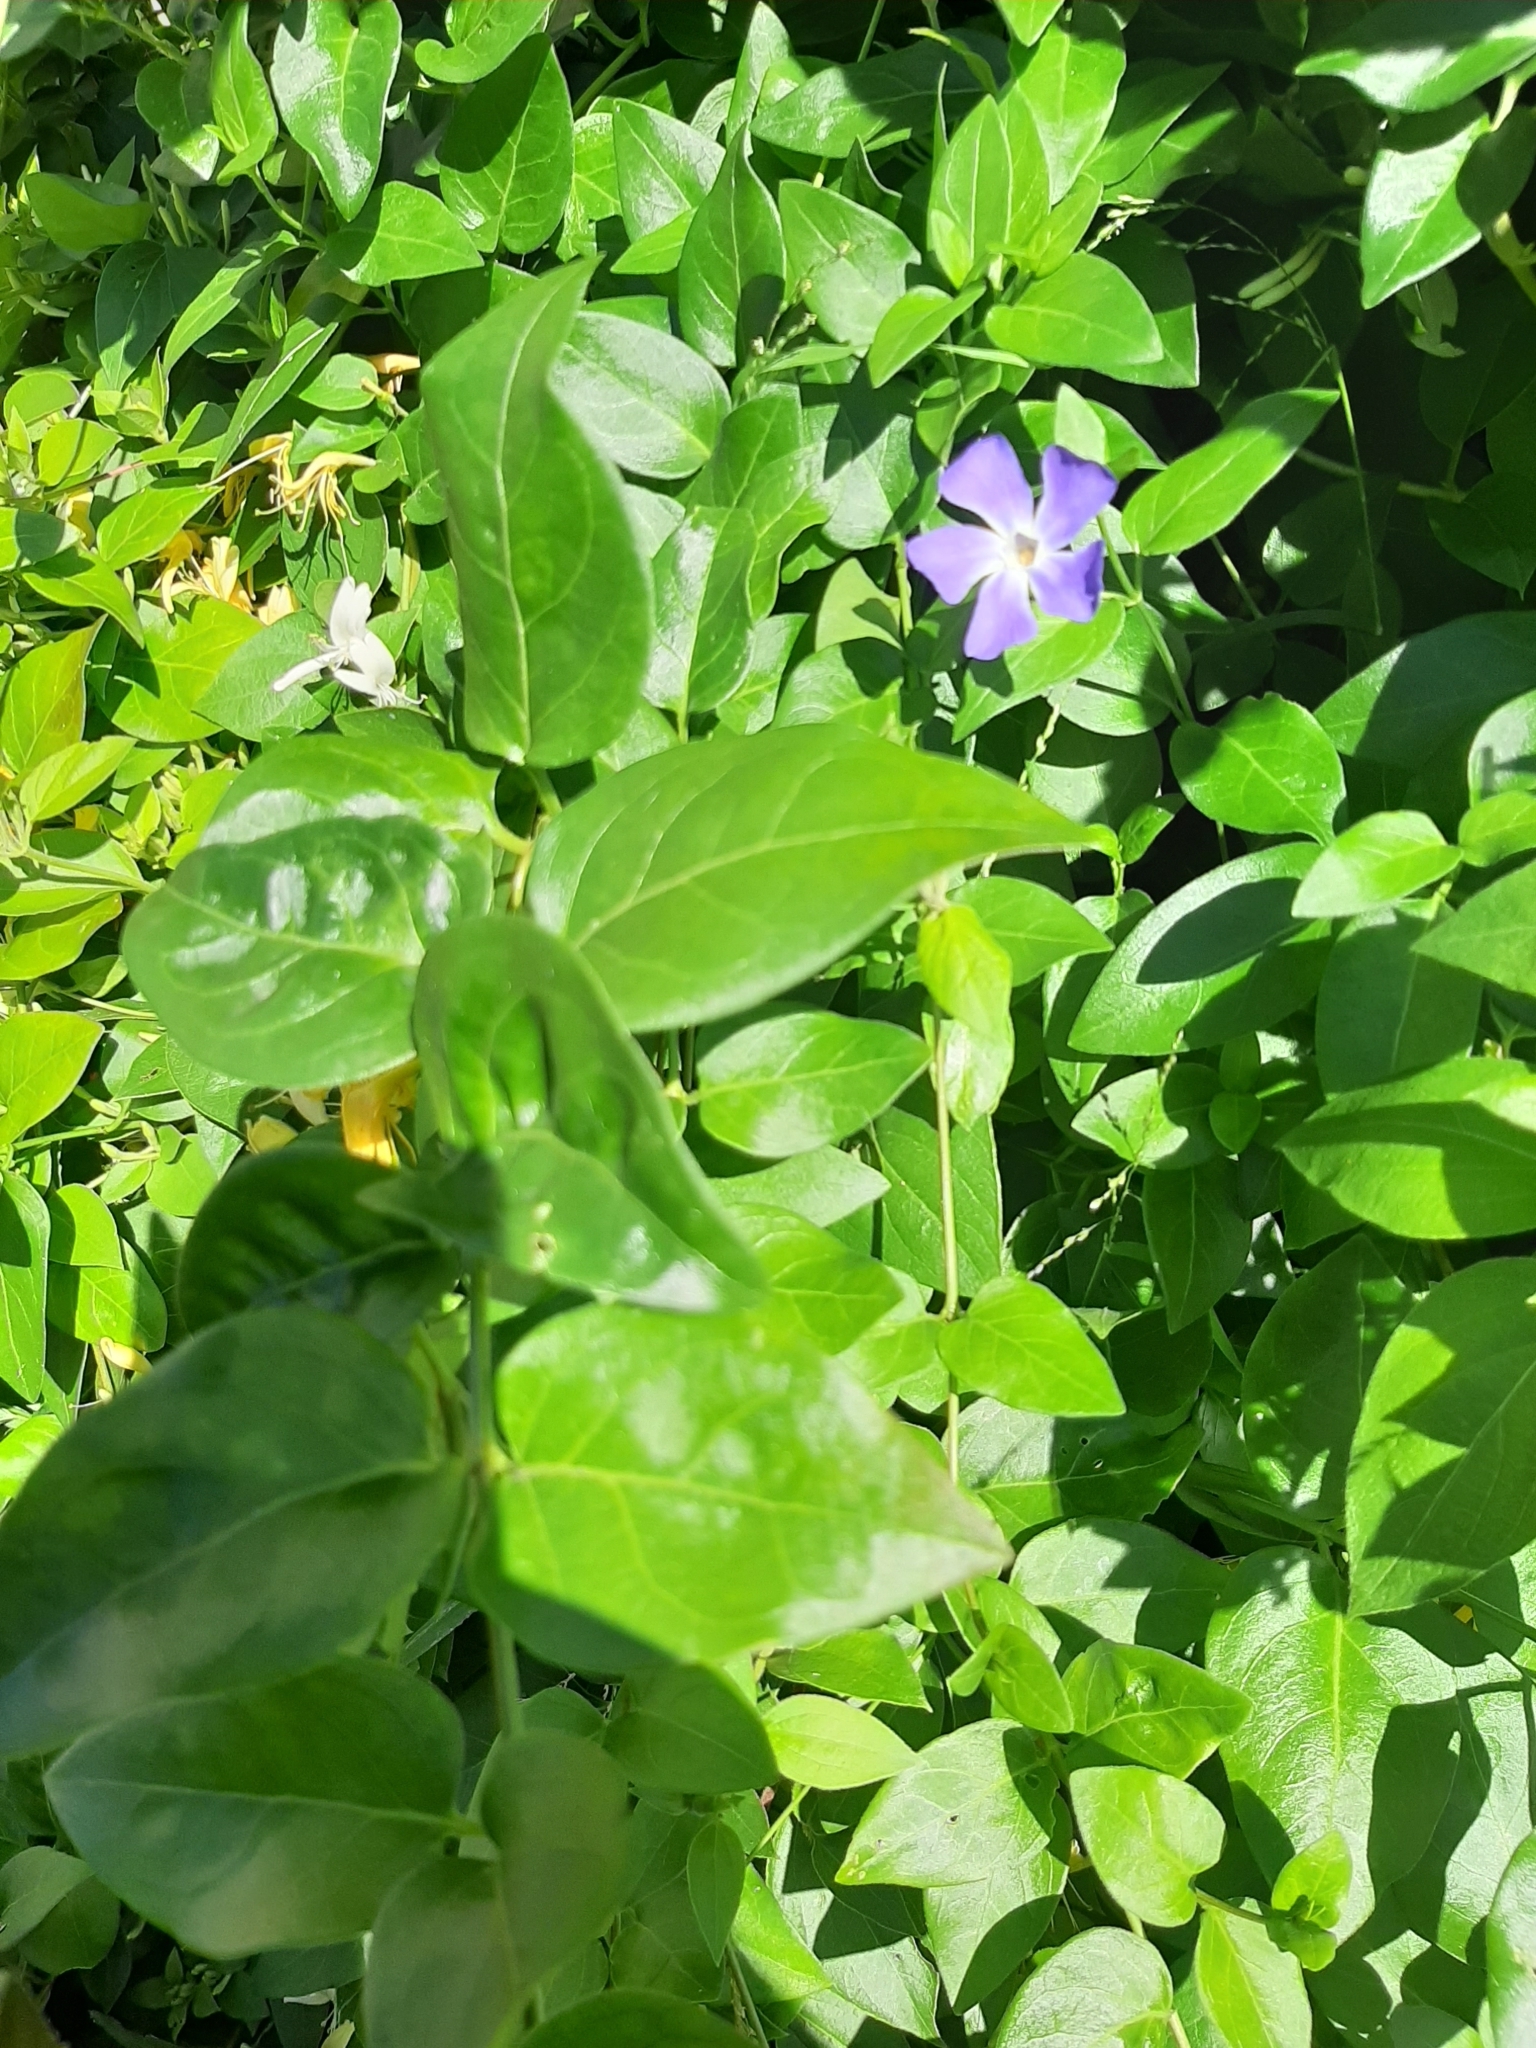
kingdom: Plantae
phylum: Tracheophyta
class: Magnoliopsida
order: Gentianales
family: Apocynaceae
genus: Vinca
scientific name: Vinca major
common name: Greater periwinkle
